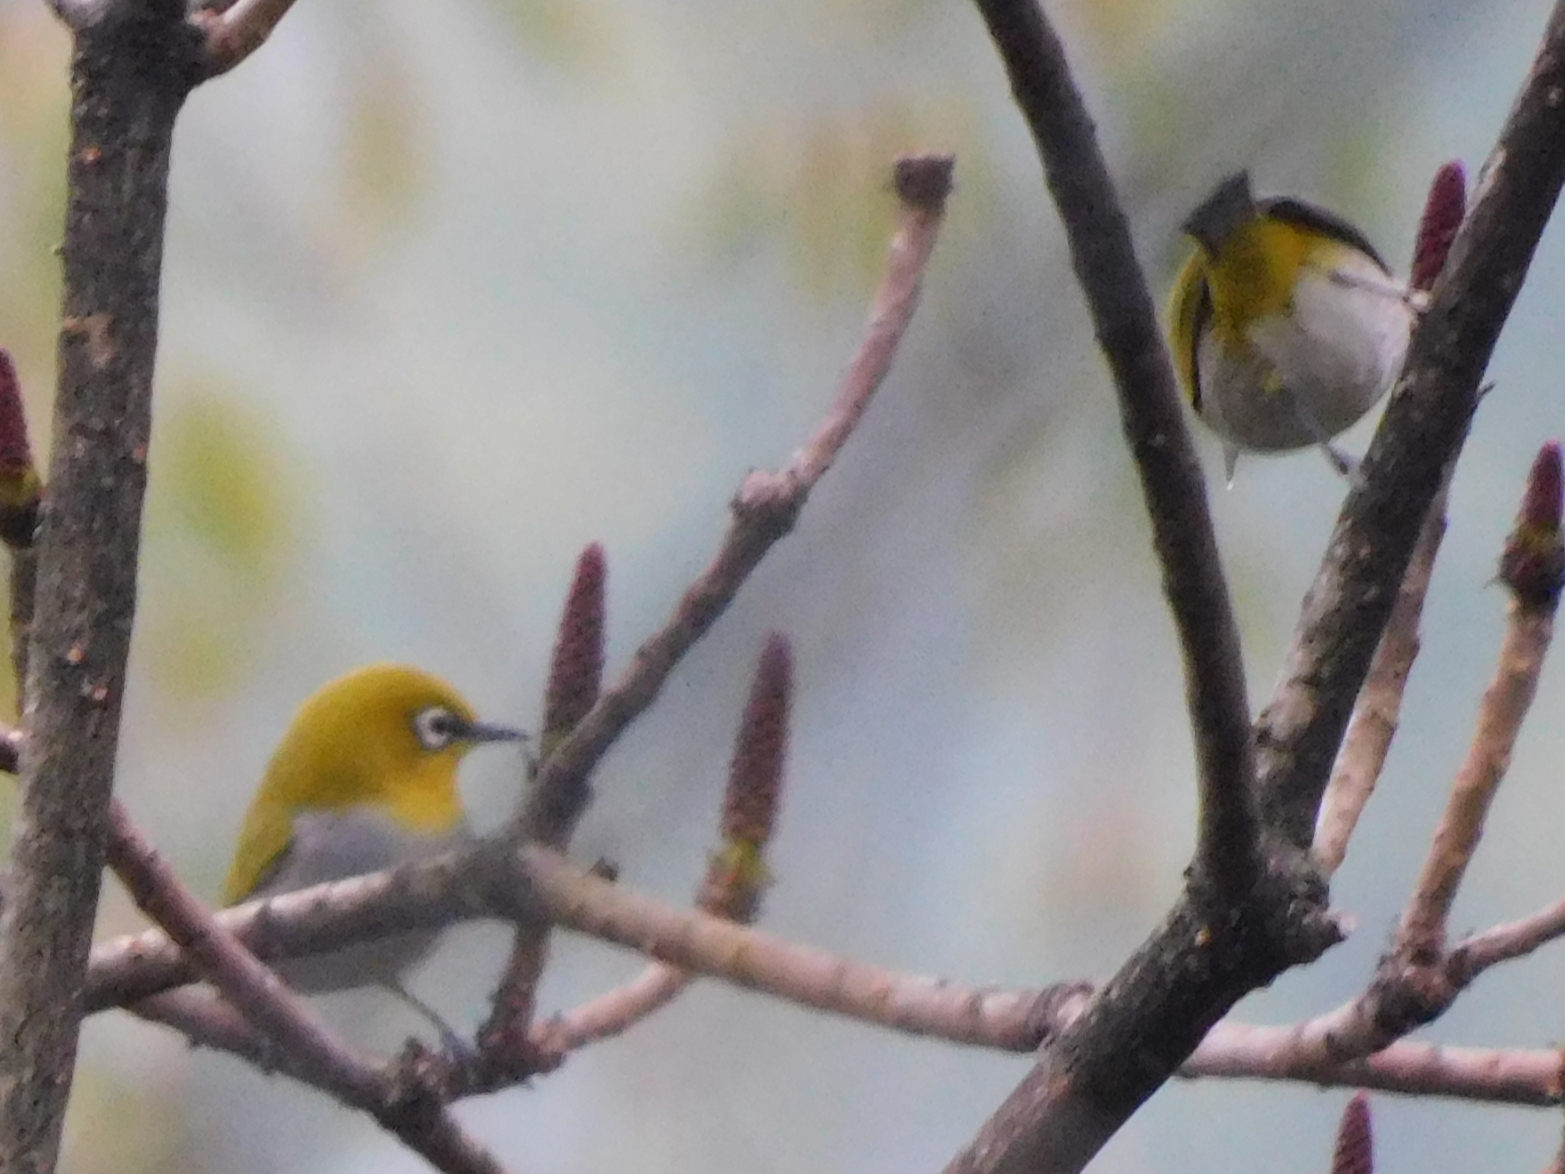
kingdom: Animalia
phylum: Chordata
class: Aves
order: Passeriformes
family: Zosteropidae
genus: Zosterops
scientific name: Zosterops palpebrosus
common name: Oriental white-eye
